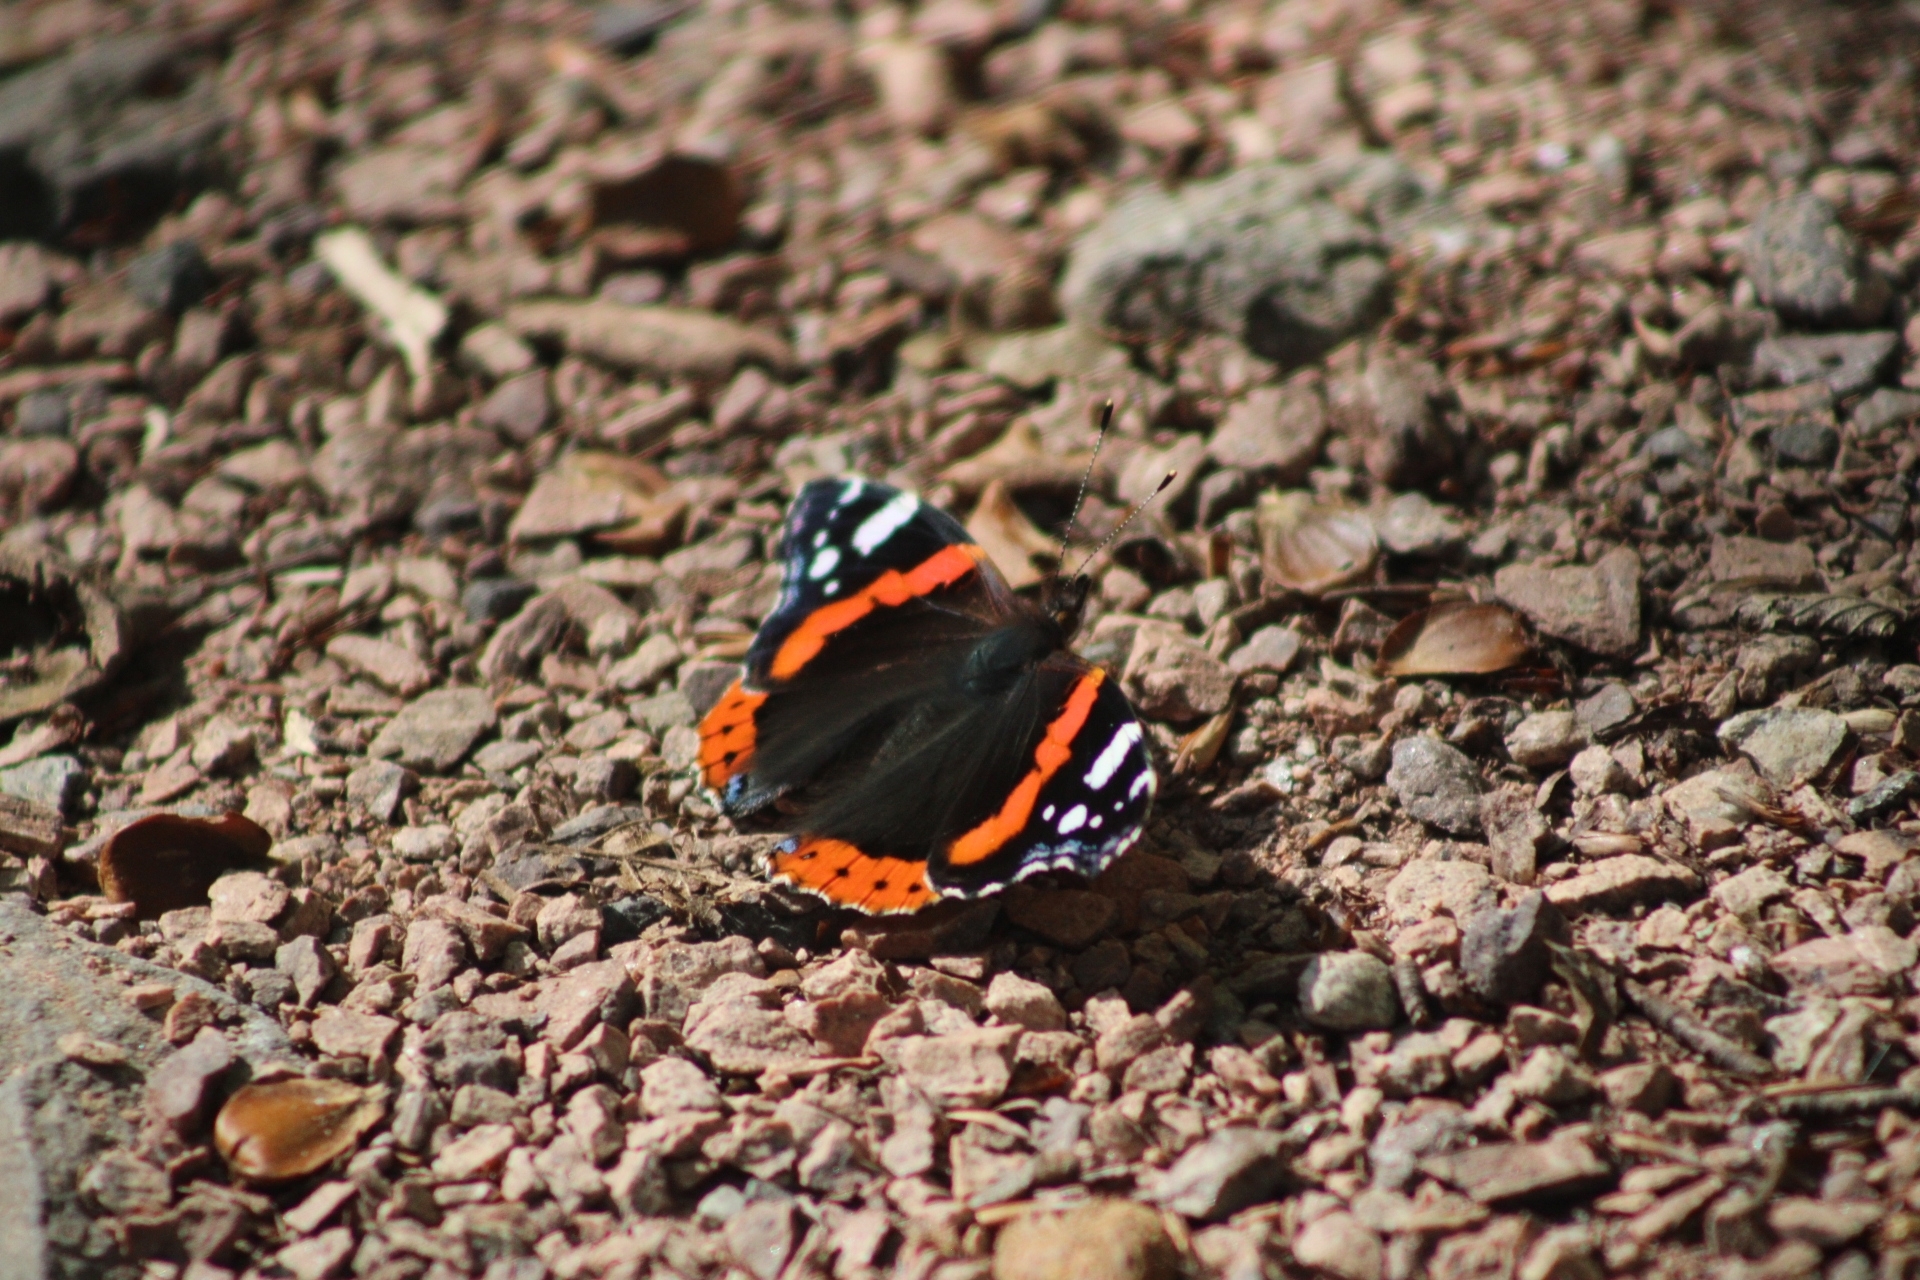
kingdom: Animalia
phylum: Arthropoda
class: Insecta
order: Lepidoptera
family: Nymphalidae
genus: Vanessa
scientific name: Vanessa atalanta
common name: Red admiral
